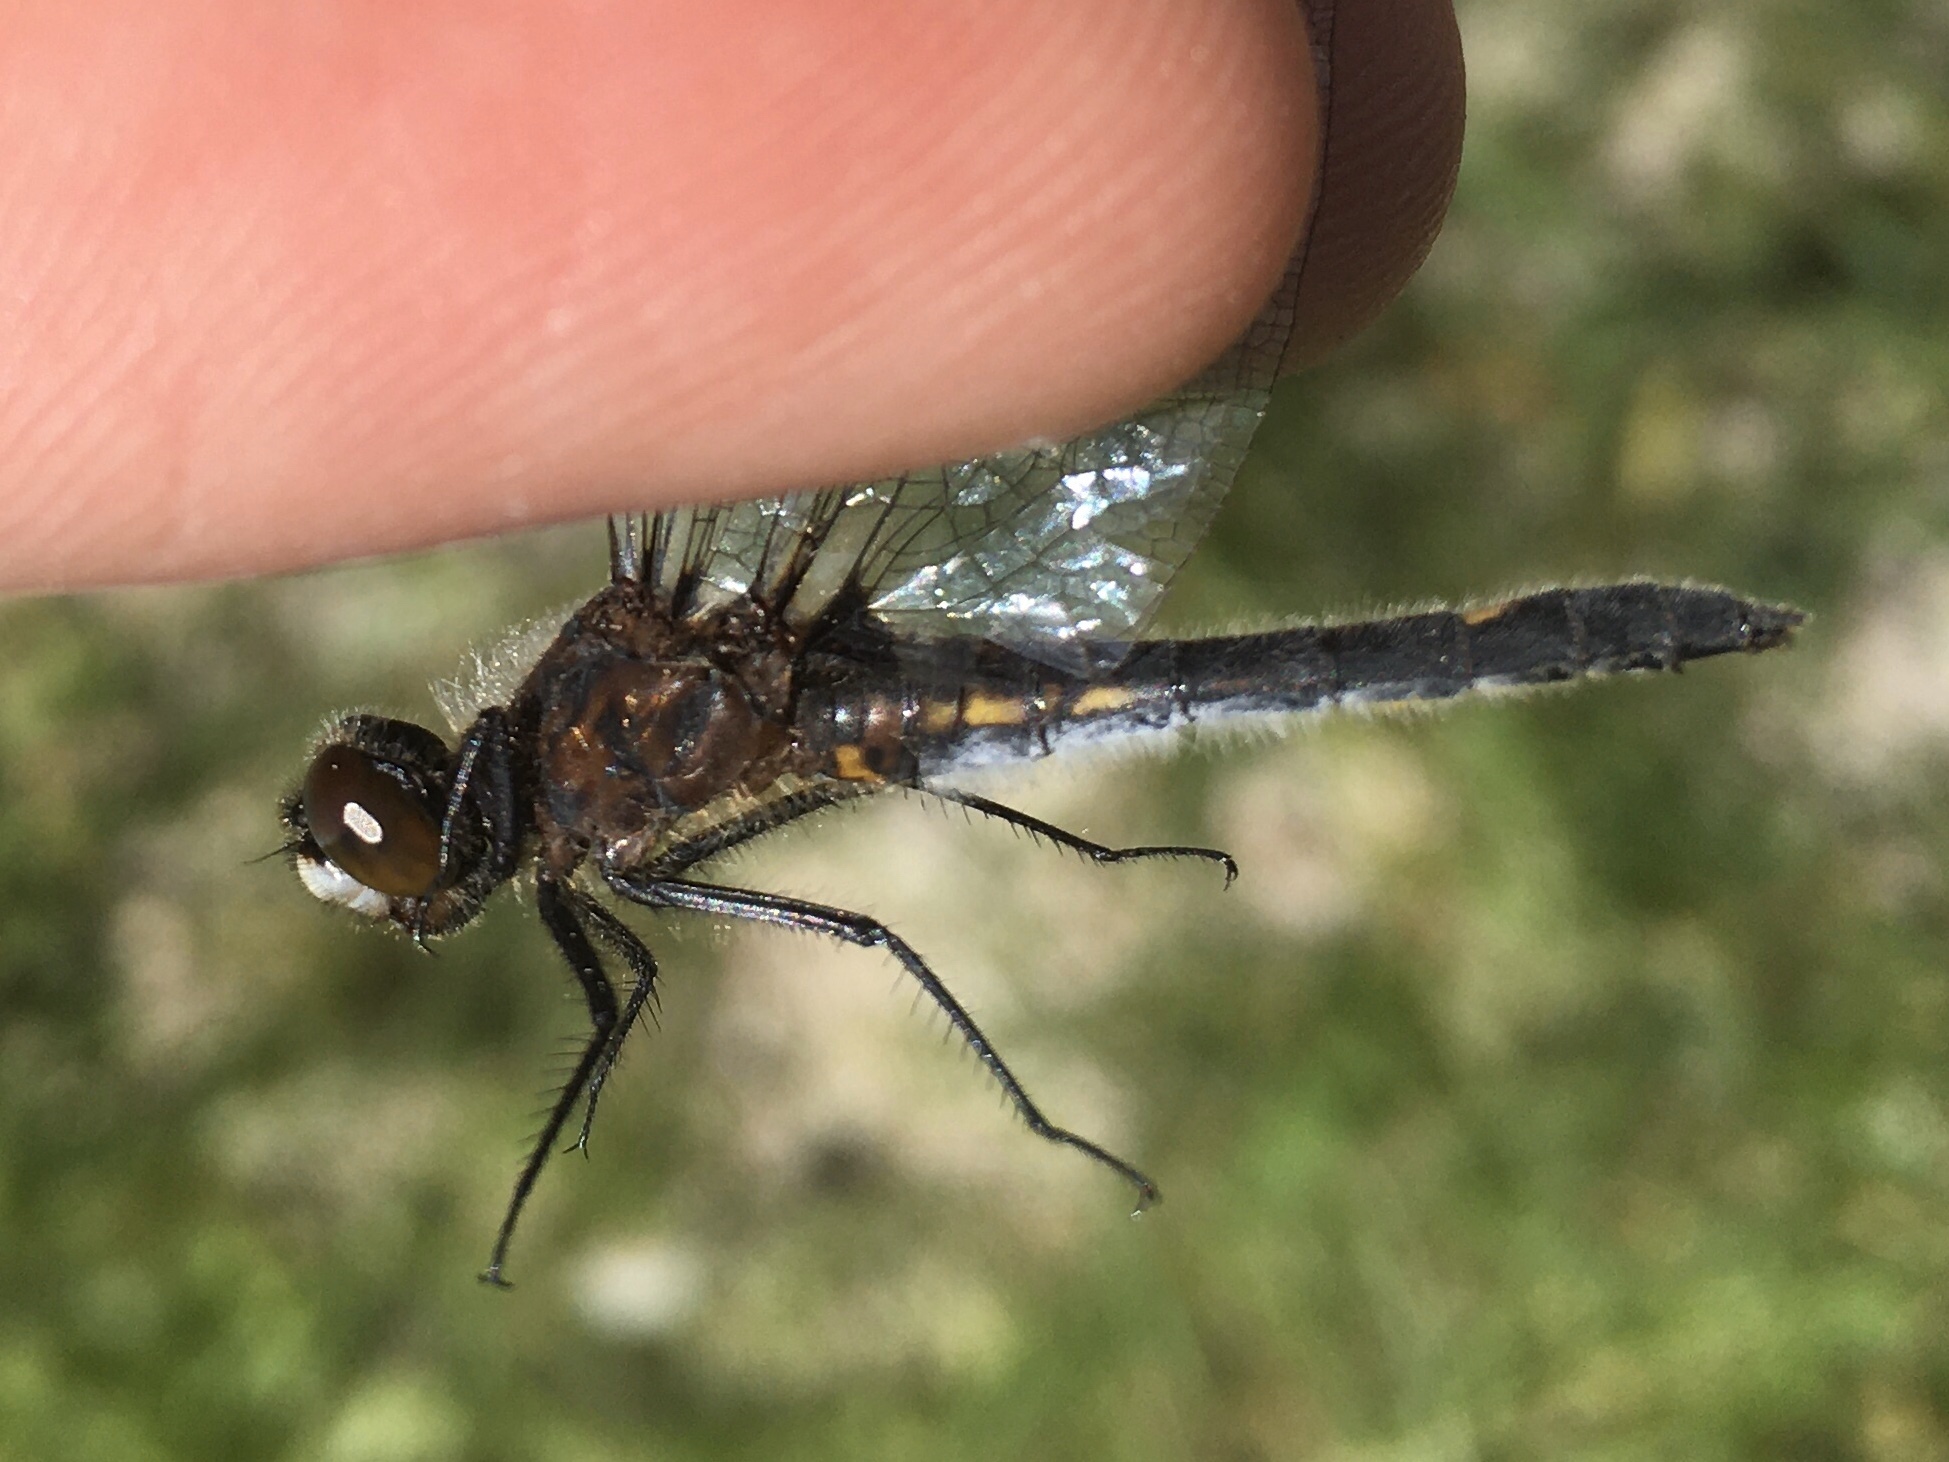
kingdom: Animalia
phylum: Arthropoda
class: Insecta
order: Odonata
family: Libellulidae
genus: Leucorrhinia
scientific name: Leucorrhinia intacta
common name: Dot-tailed whiteface
